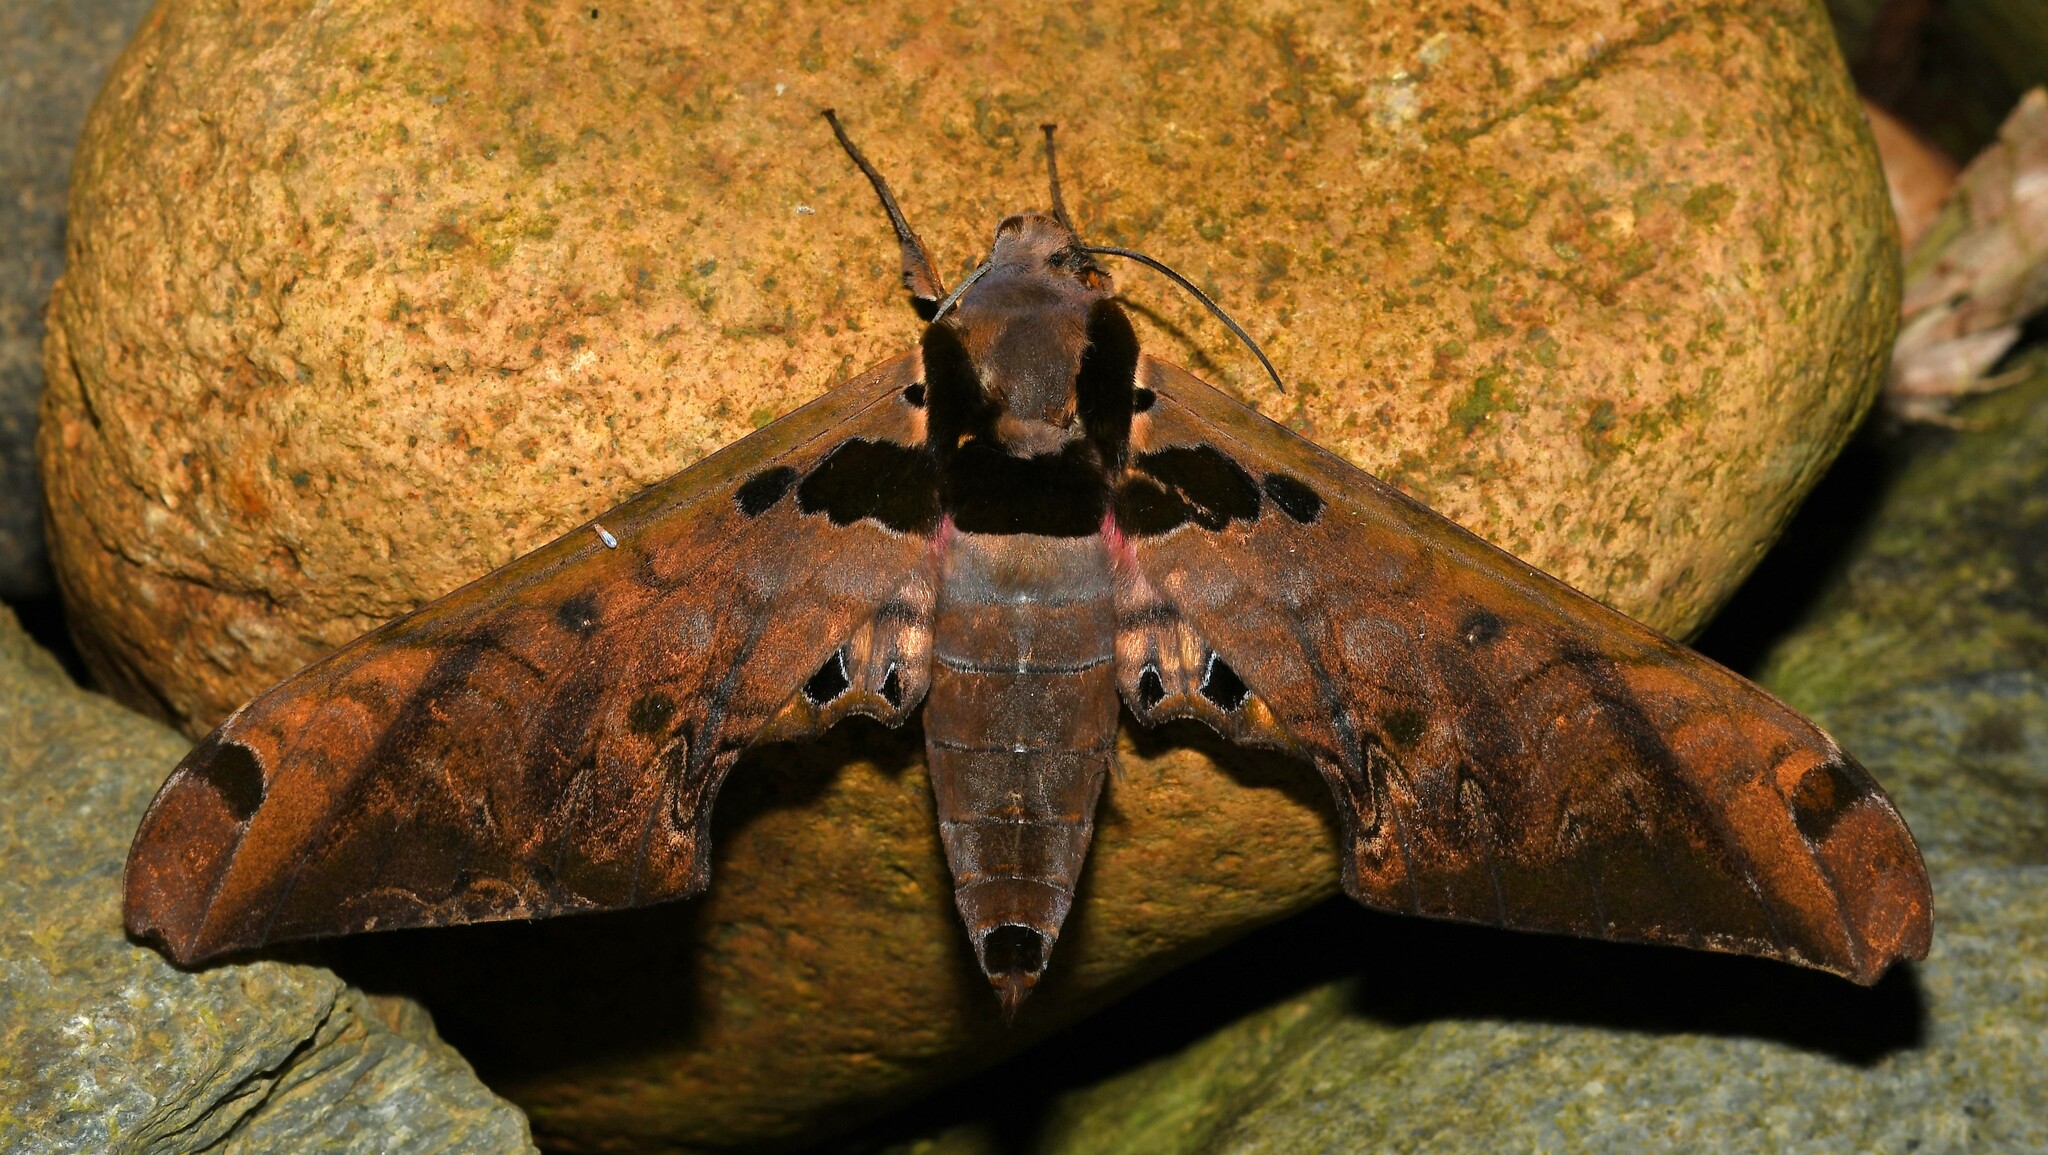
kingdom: Animalia
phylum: Arthropoda
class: Insecta
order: Lepidoptera
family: Sphingidae
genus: Adhemarius
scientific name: Adhemarius sexoculata
